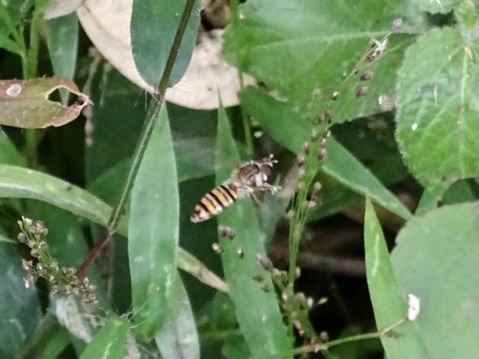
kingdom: Animalia
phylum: Arthropoda
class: Insecta
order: Diptera
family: Syrphidae
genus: Episyrphus
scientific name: Episyrphus balteatus
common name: Marmalade hoverfly
